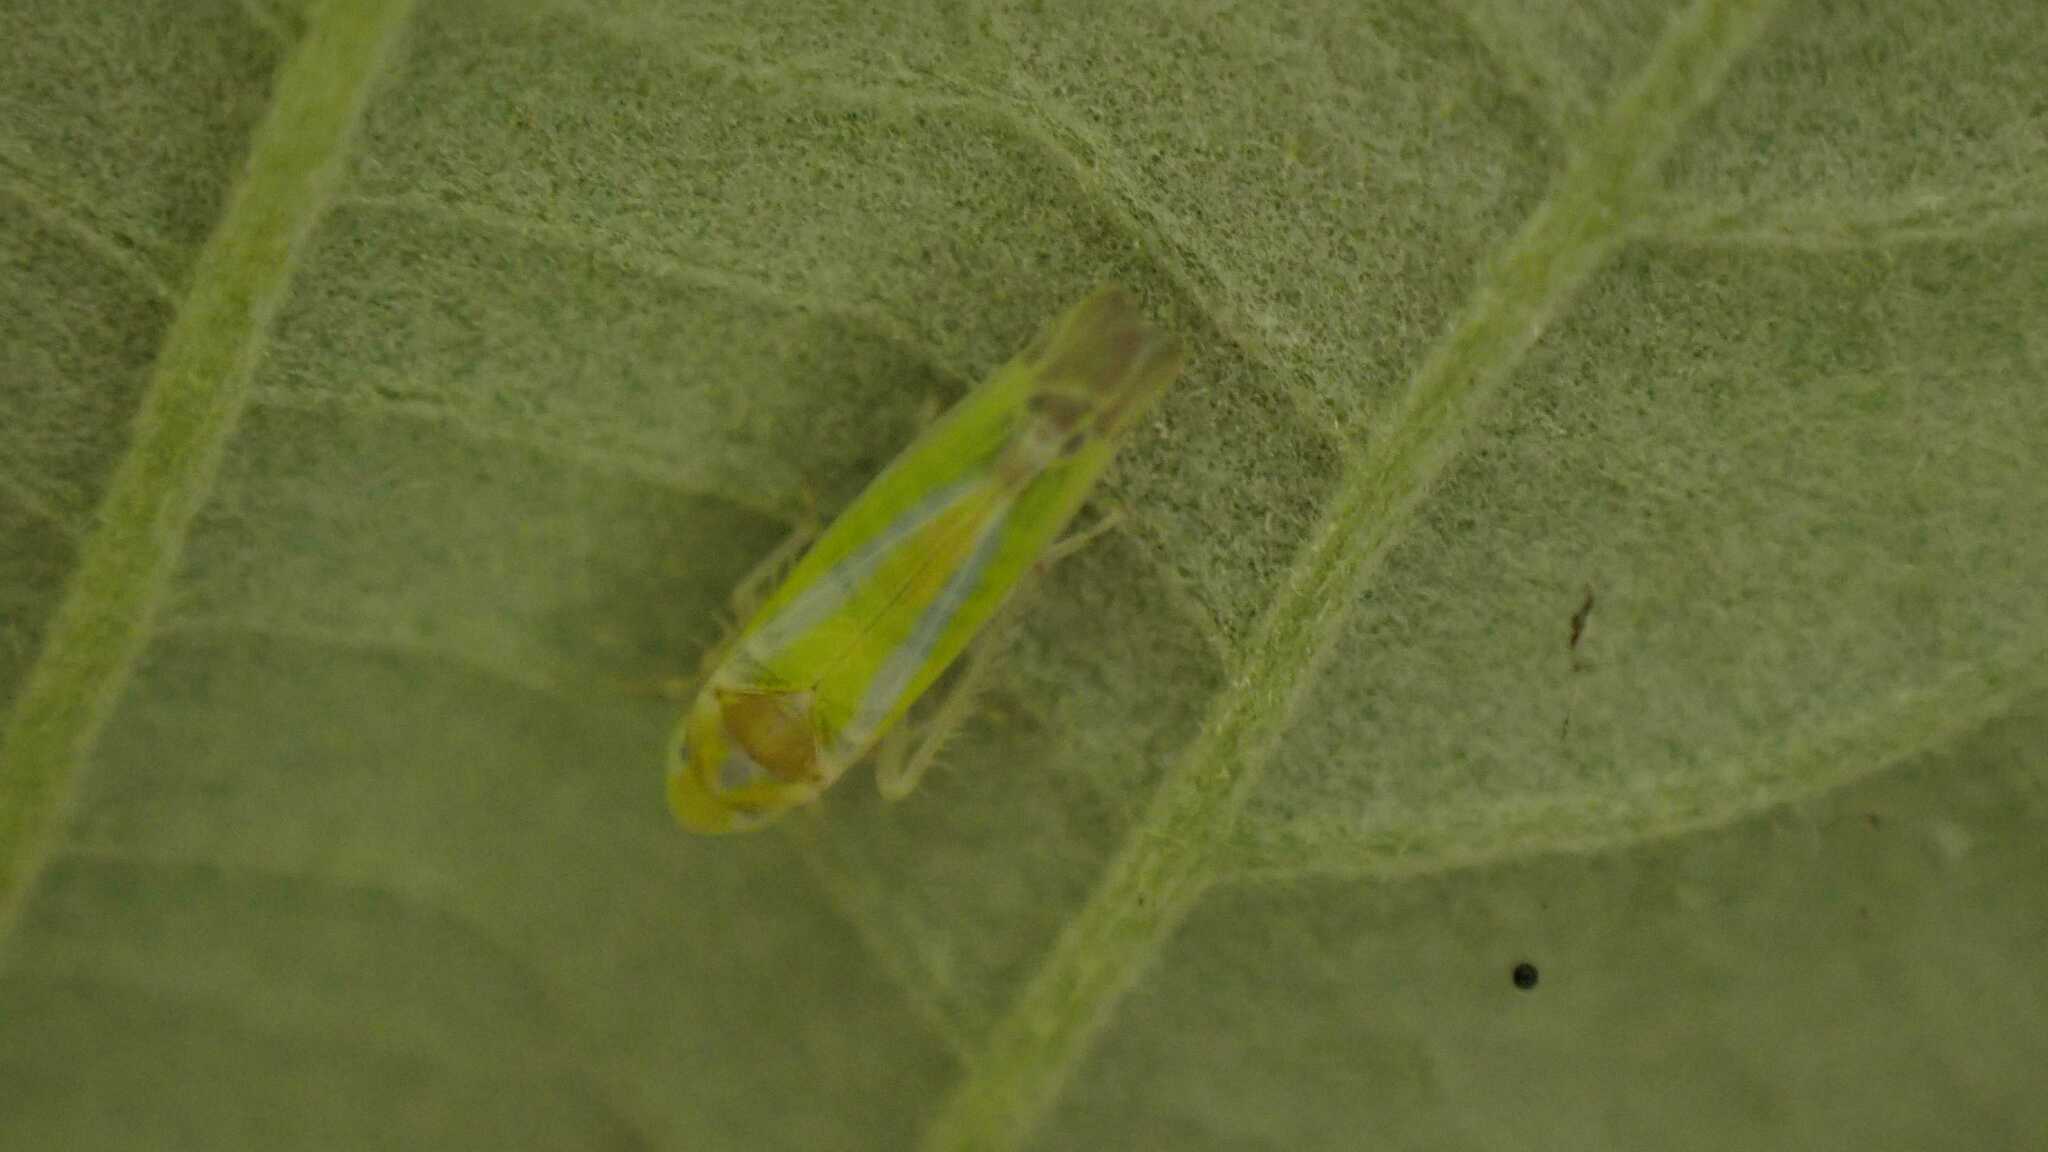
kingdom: Animalia
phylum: Arthropoda
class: Insecta
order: Hemiptera
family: Cicadellidae
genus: Lindbergina
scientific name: Lindbergina aurovittata
